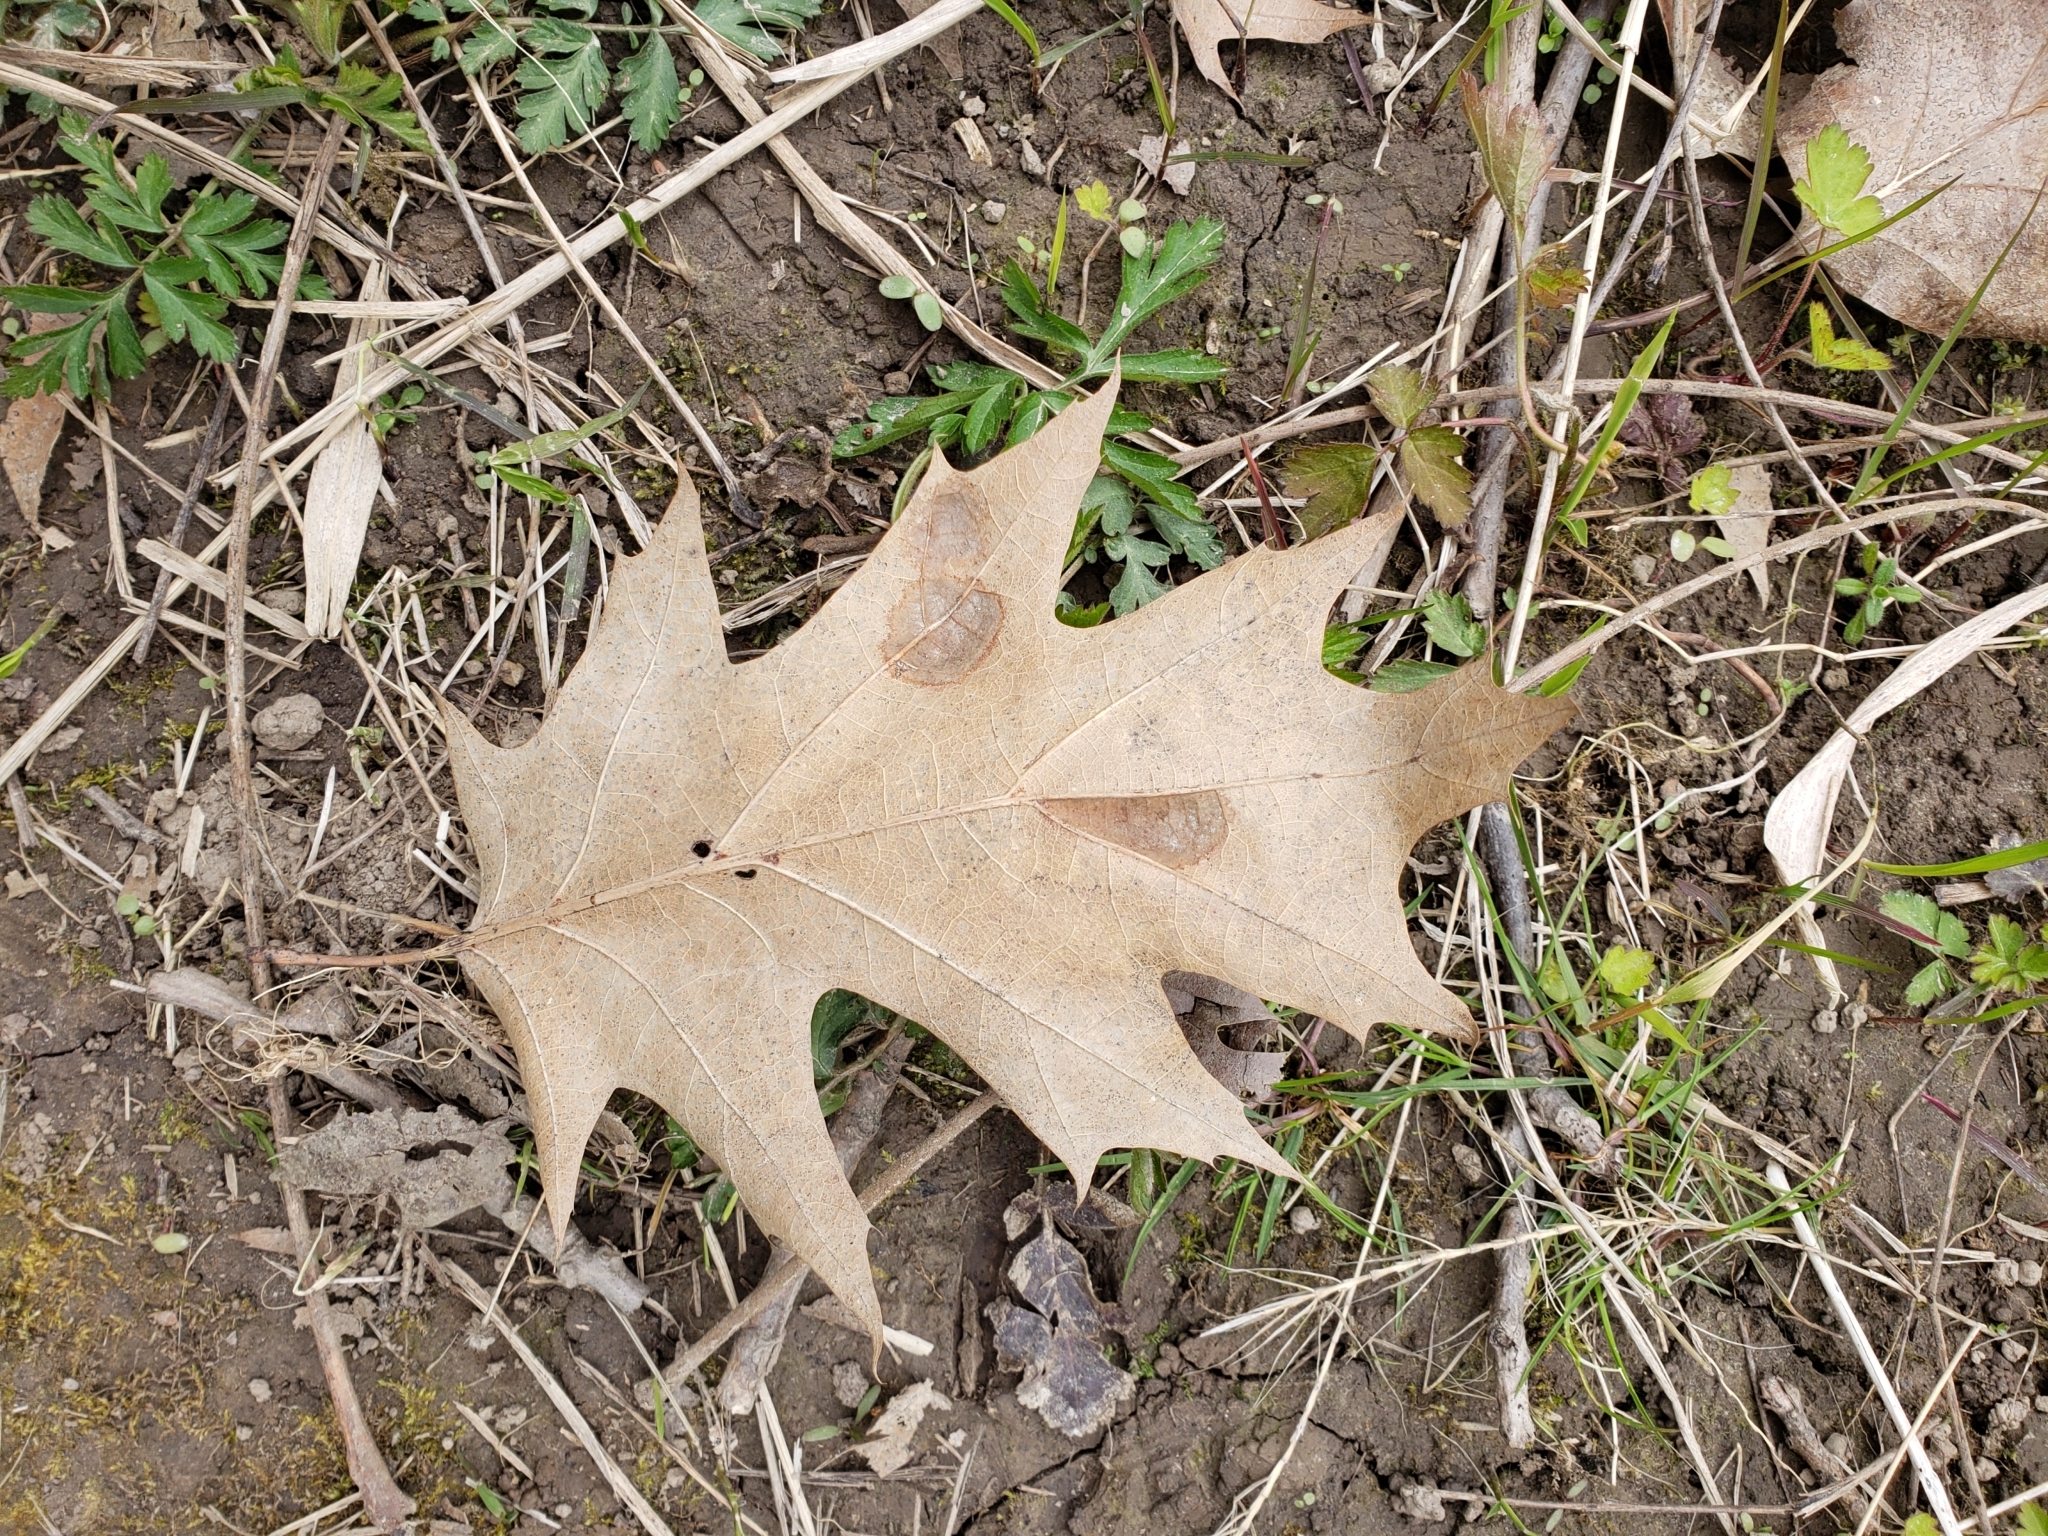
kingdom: Plantae
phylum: Tracheophyta
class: Magnoliopsida
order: Fagales
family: Fagaceae
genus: Quercus
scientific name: Quercus rubra
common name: Red oak
